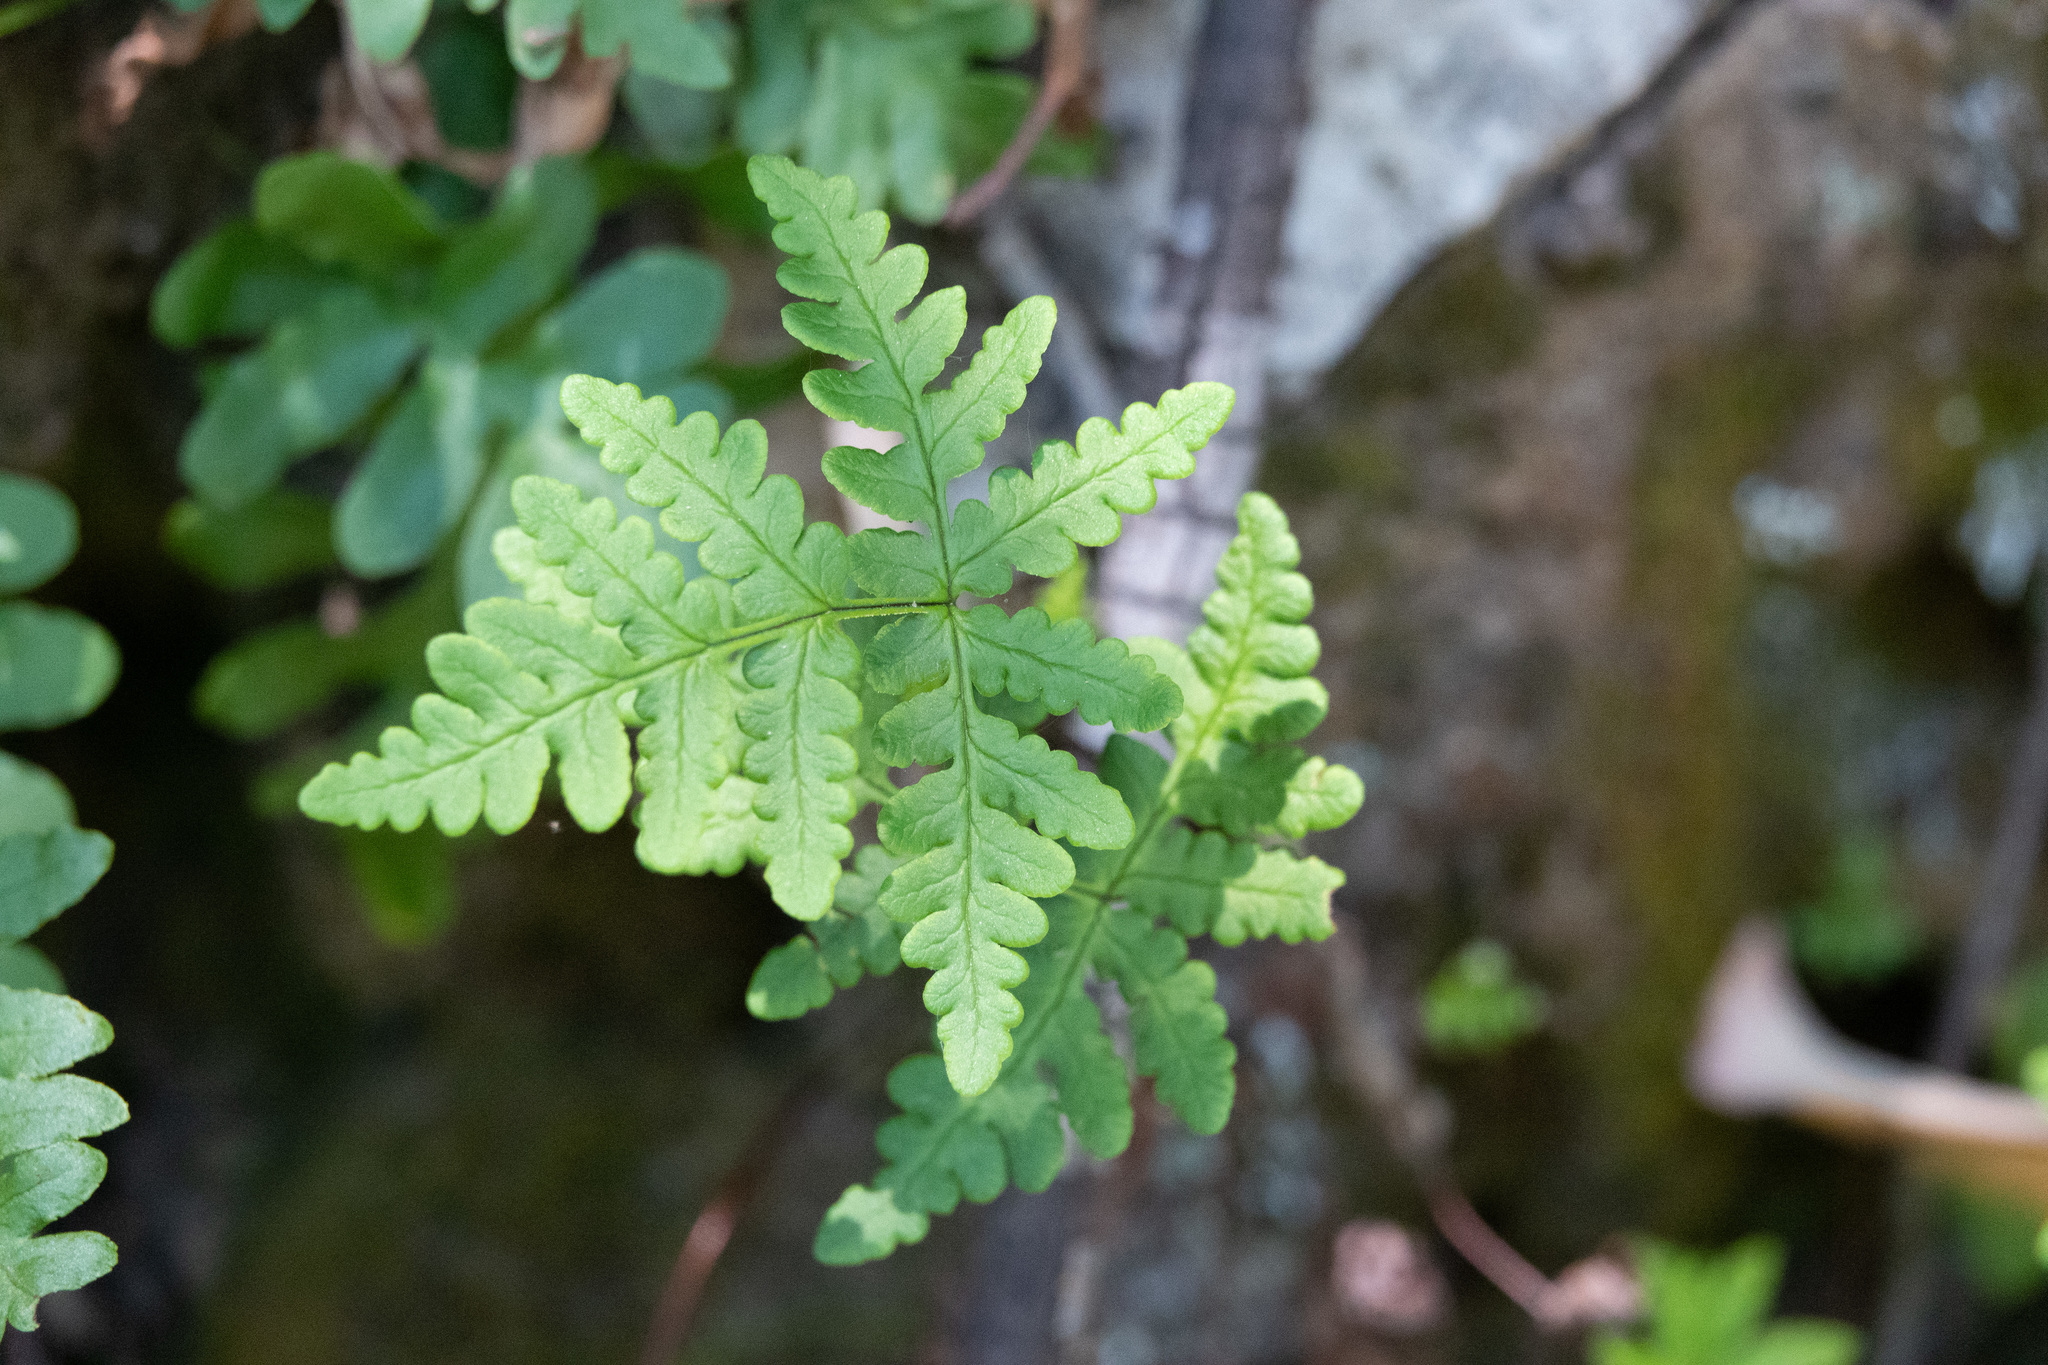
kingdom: Plantae
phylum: Tracheophyta
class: Polypodiopsida
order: Polypodiales
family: Pteridaceae
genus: Pentagramma
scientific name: Pentagramma triangularis
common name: Gold fern
